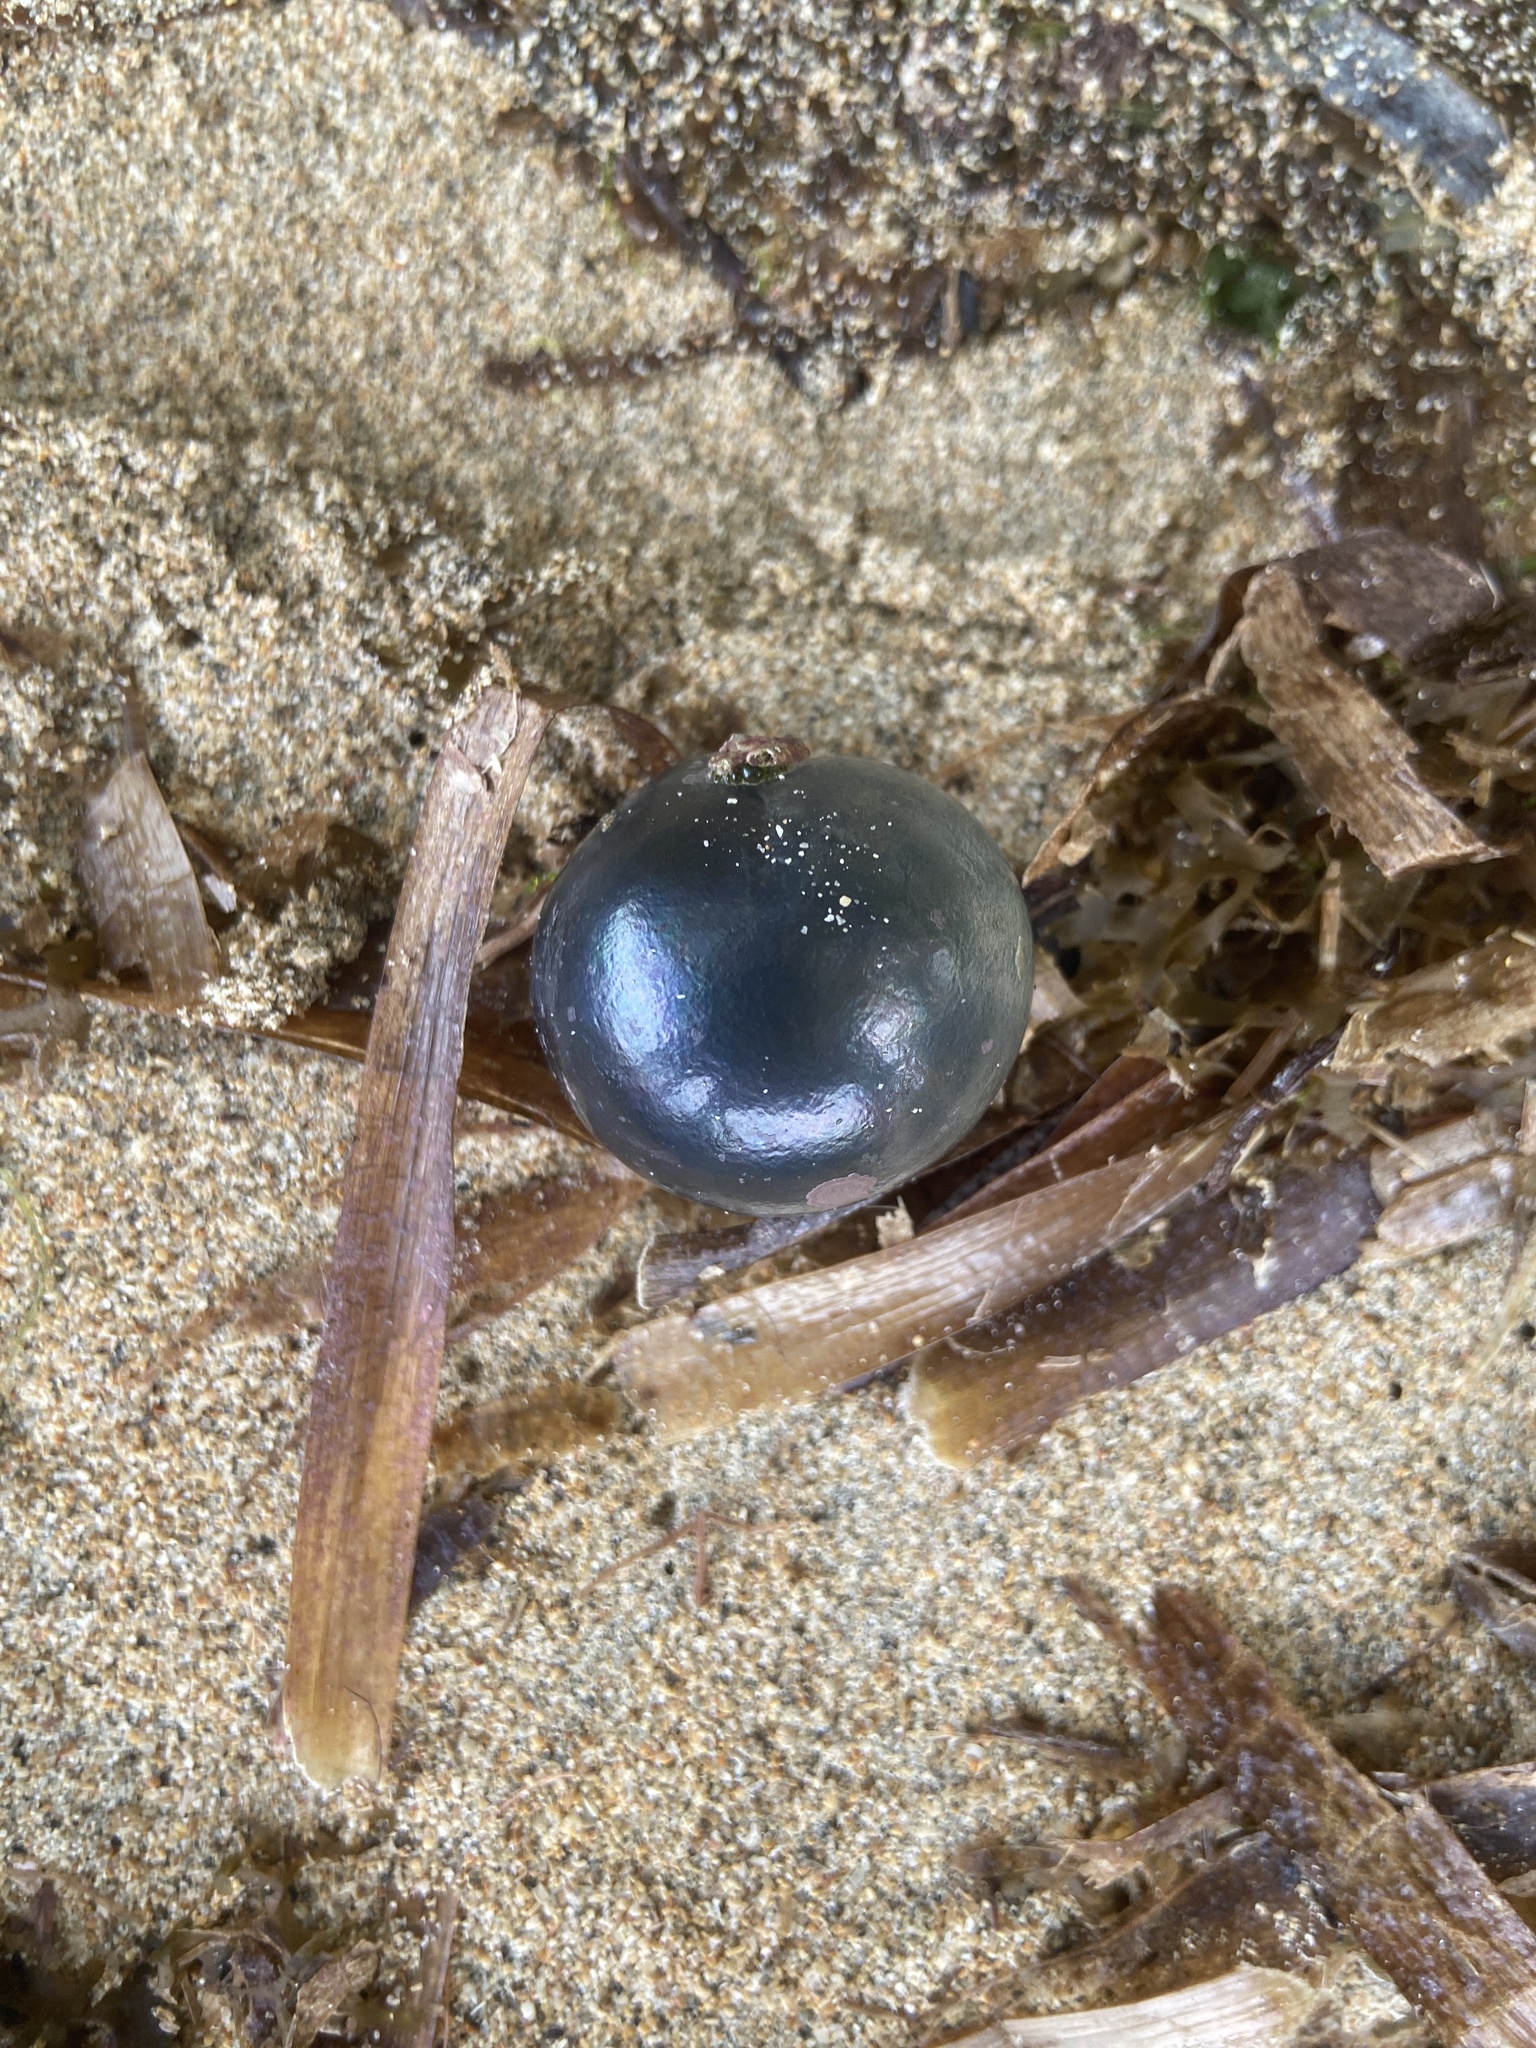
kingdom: Plantae
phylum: Chlorophyta
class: Ulvophyceae
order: Siphonocladales
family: Valoniaceae
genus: Valonia
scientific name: Valonia ventricosa
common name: Sea pearl
